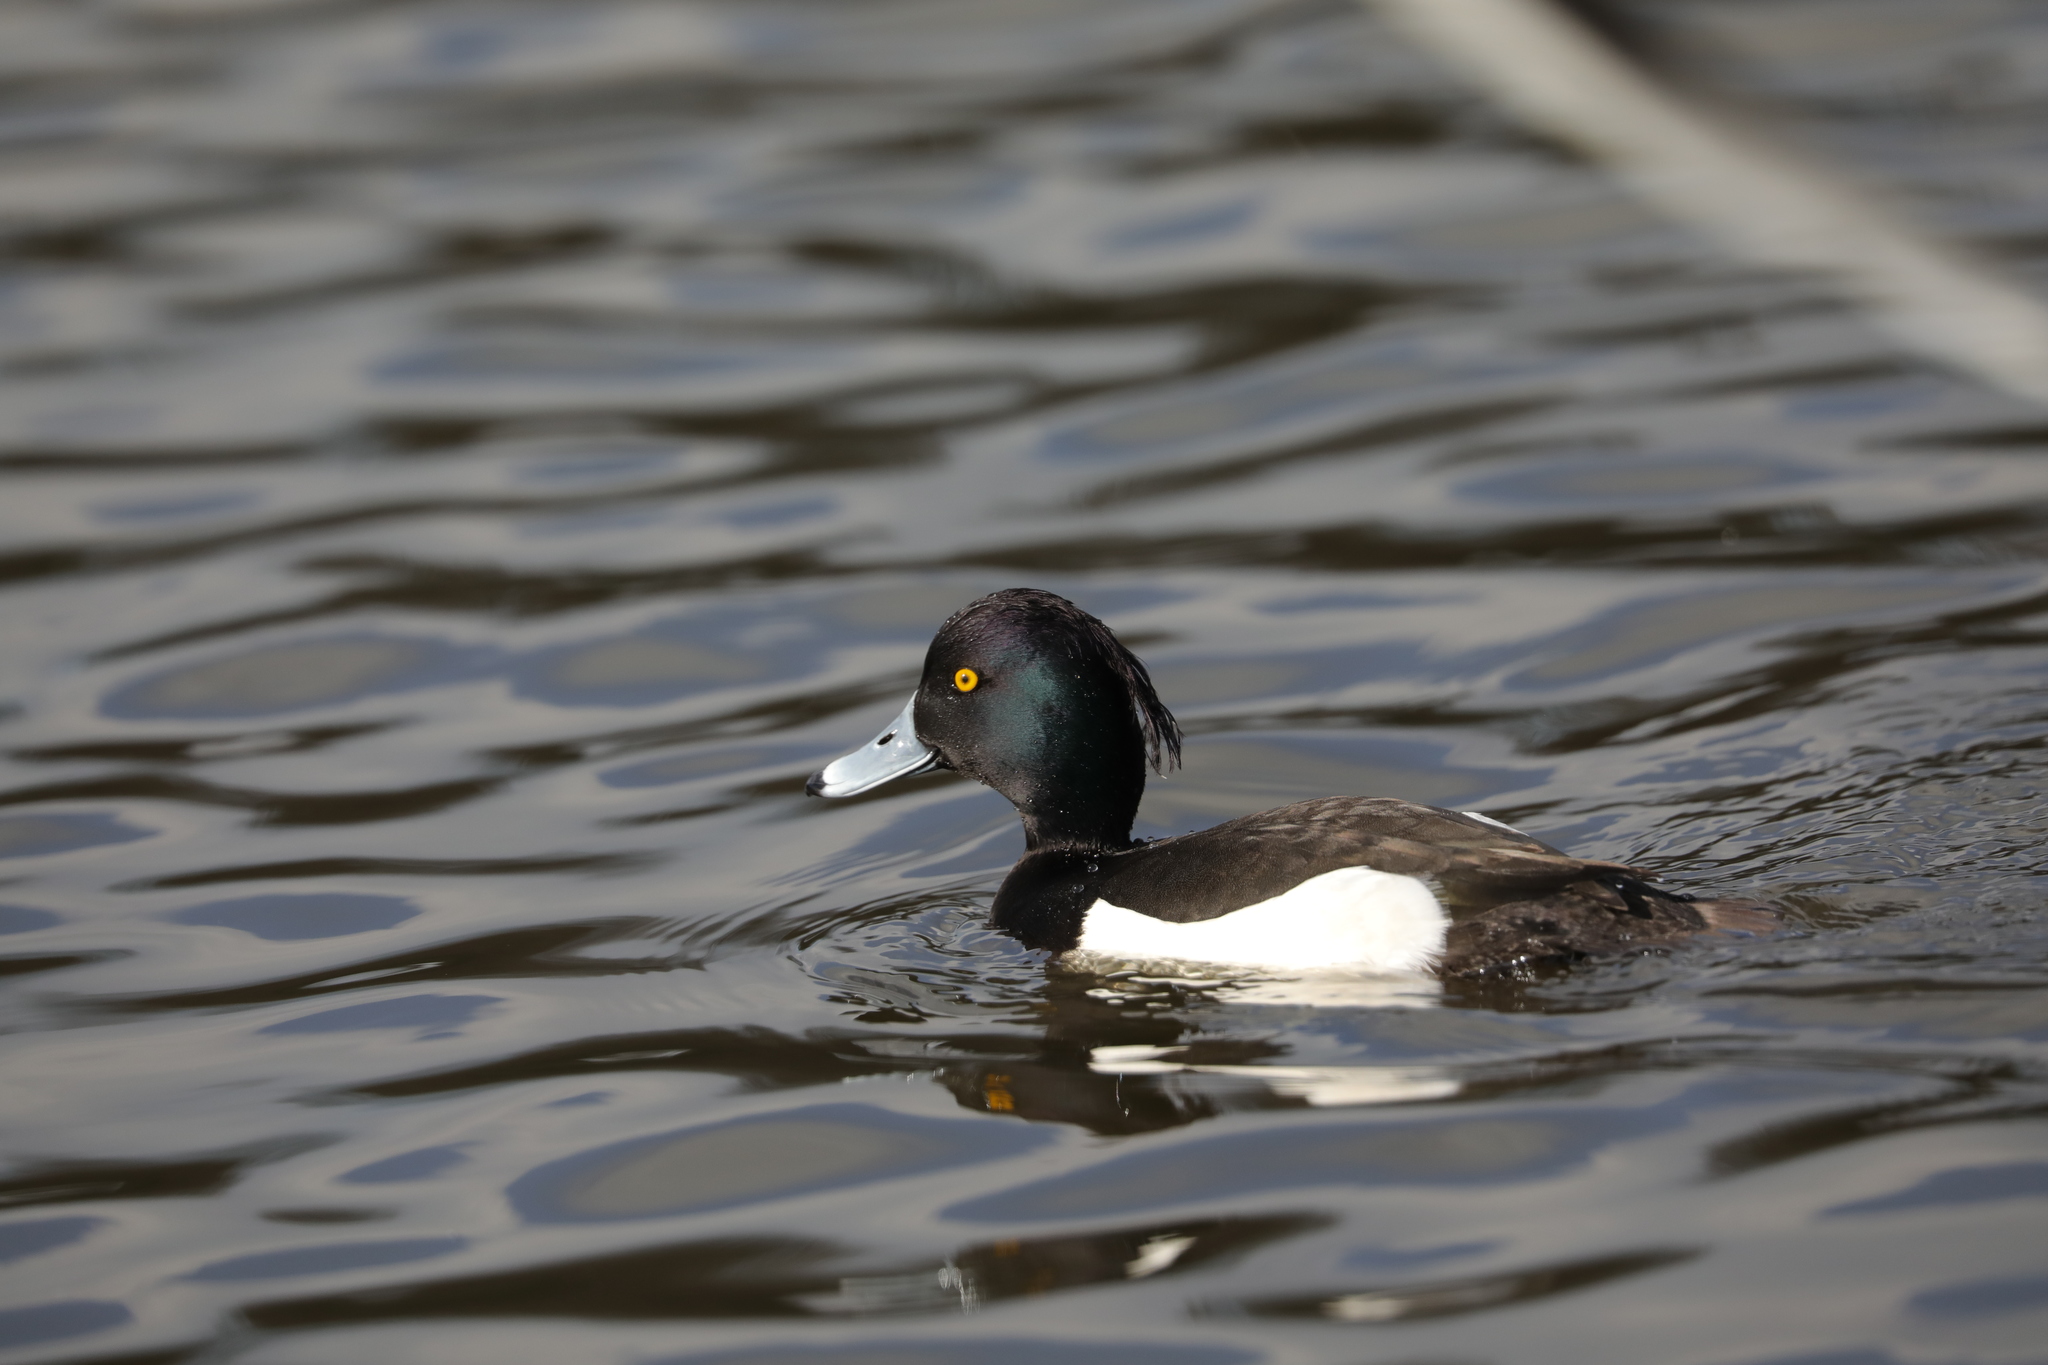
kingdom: Animalia
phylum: Chordata
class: Aves
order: Anseriformes
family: Anatidae
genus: Aythya
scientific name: Aythya fuligula
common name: Tufted duck
